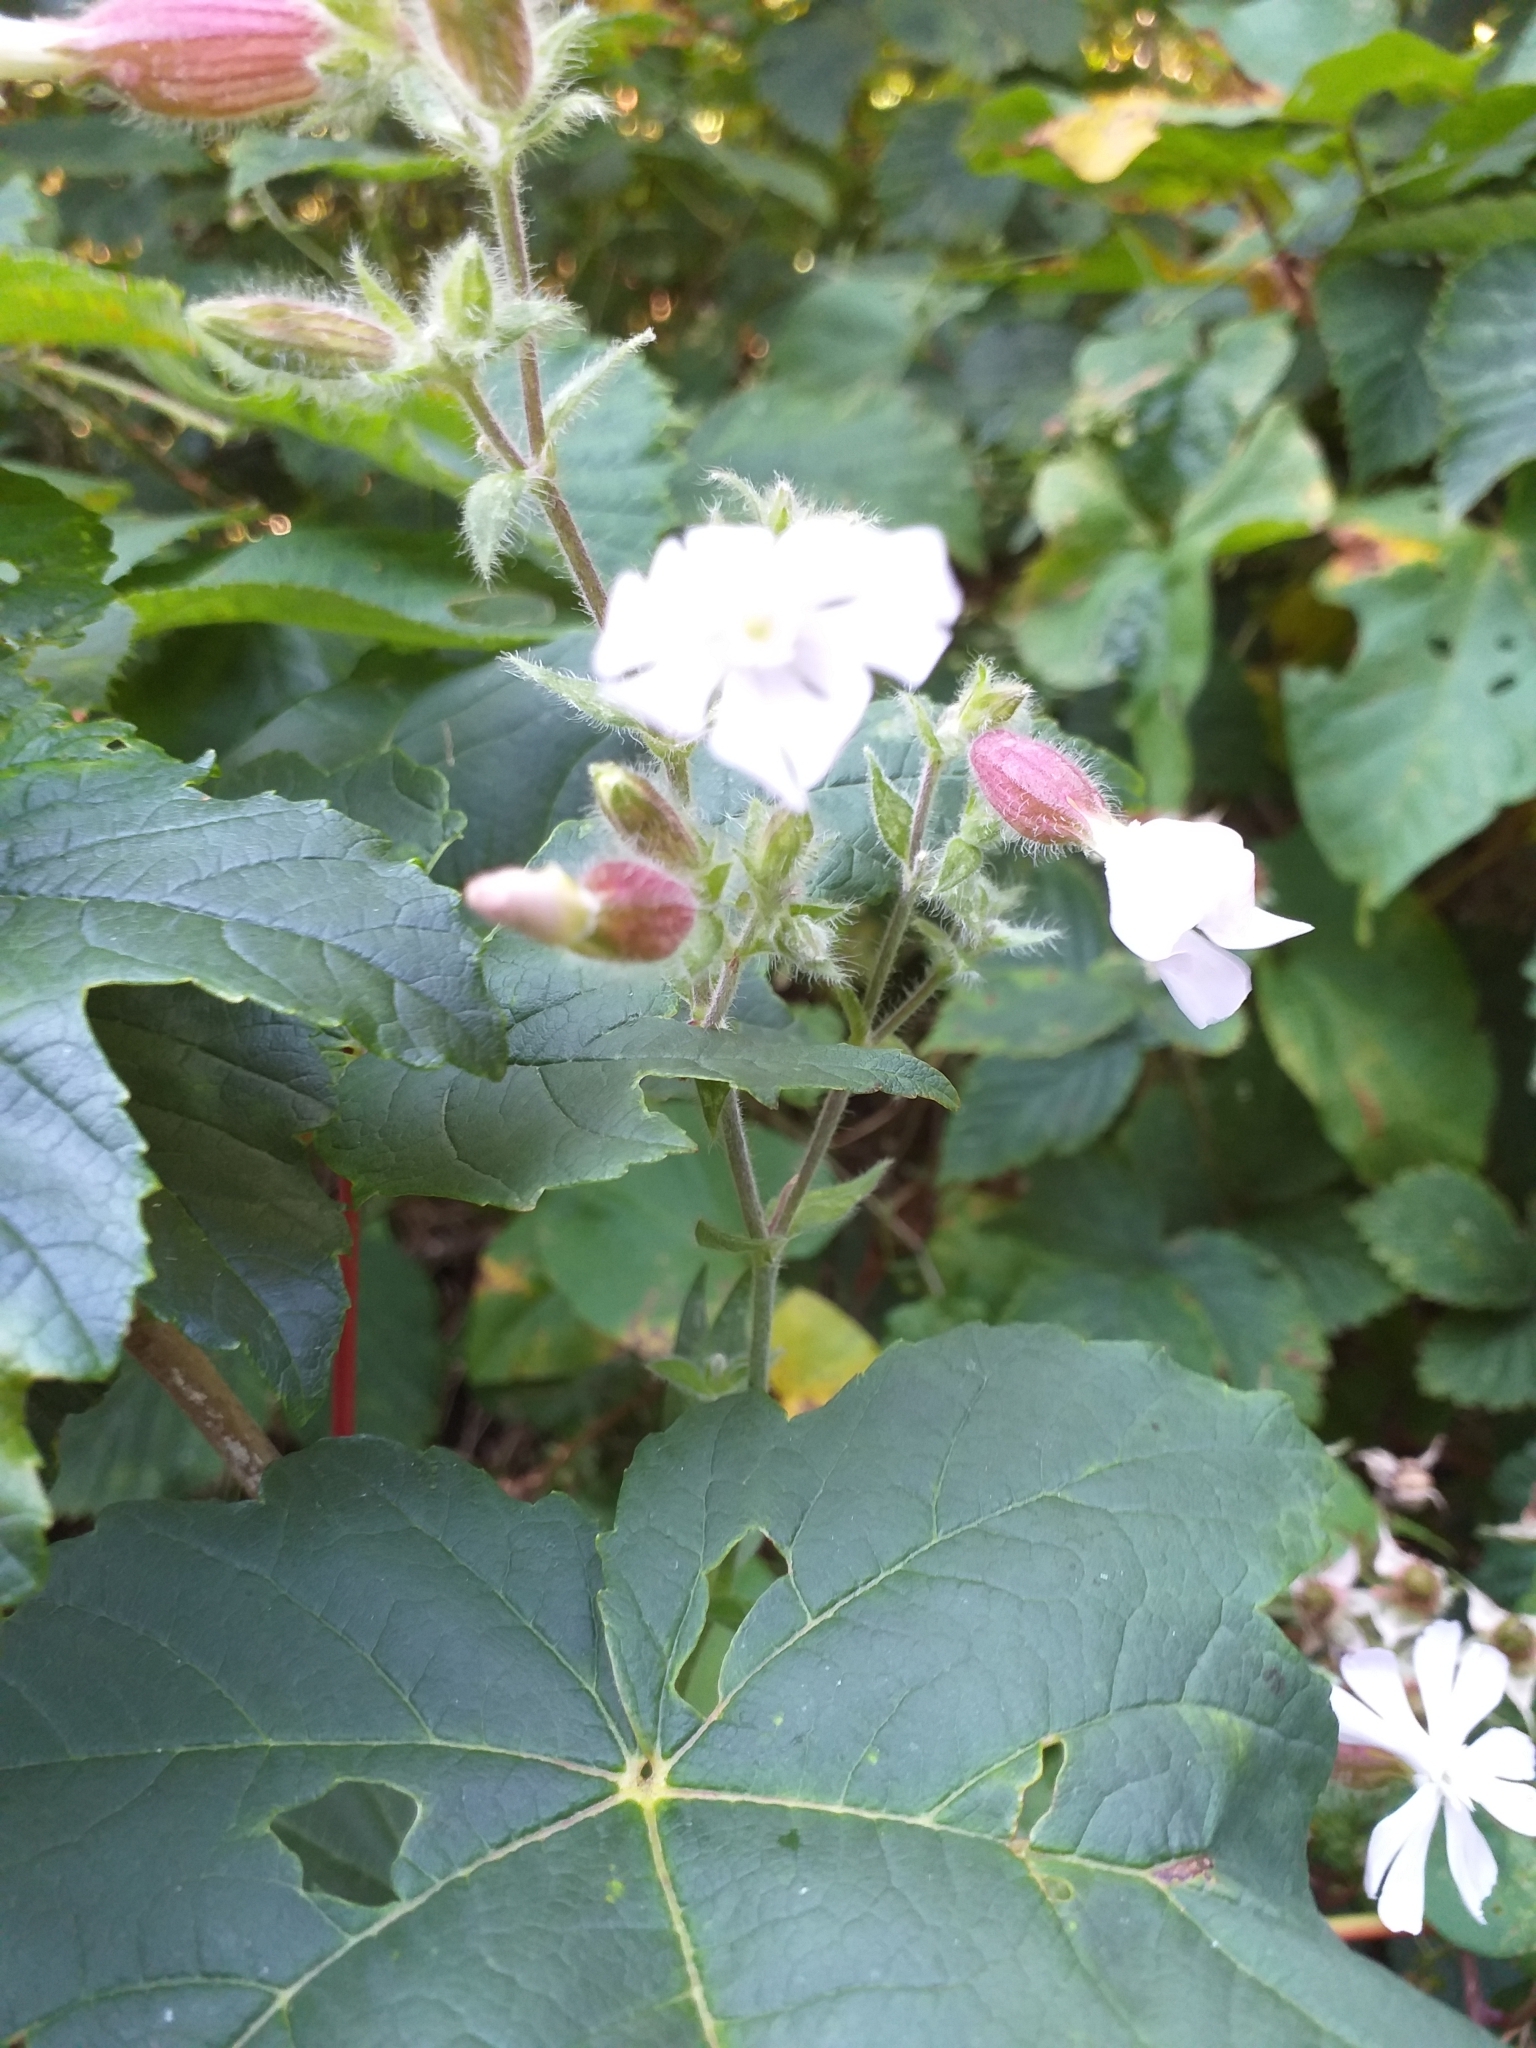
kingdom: Plantae
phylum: Tracheophyta
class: Magnoliopsida
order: Caryophyllales
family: Caryophyllaceae
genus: Silene
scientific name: Silene latifolia
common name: White campion
